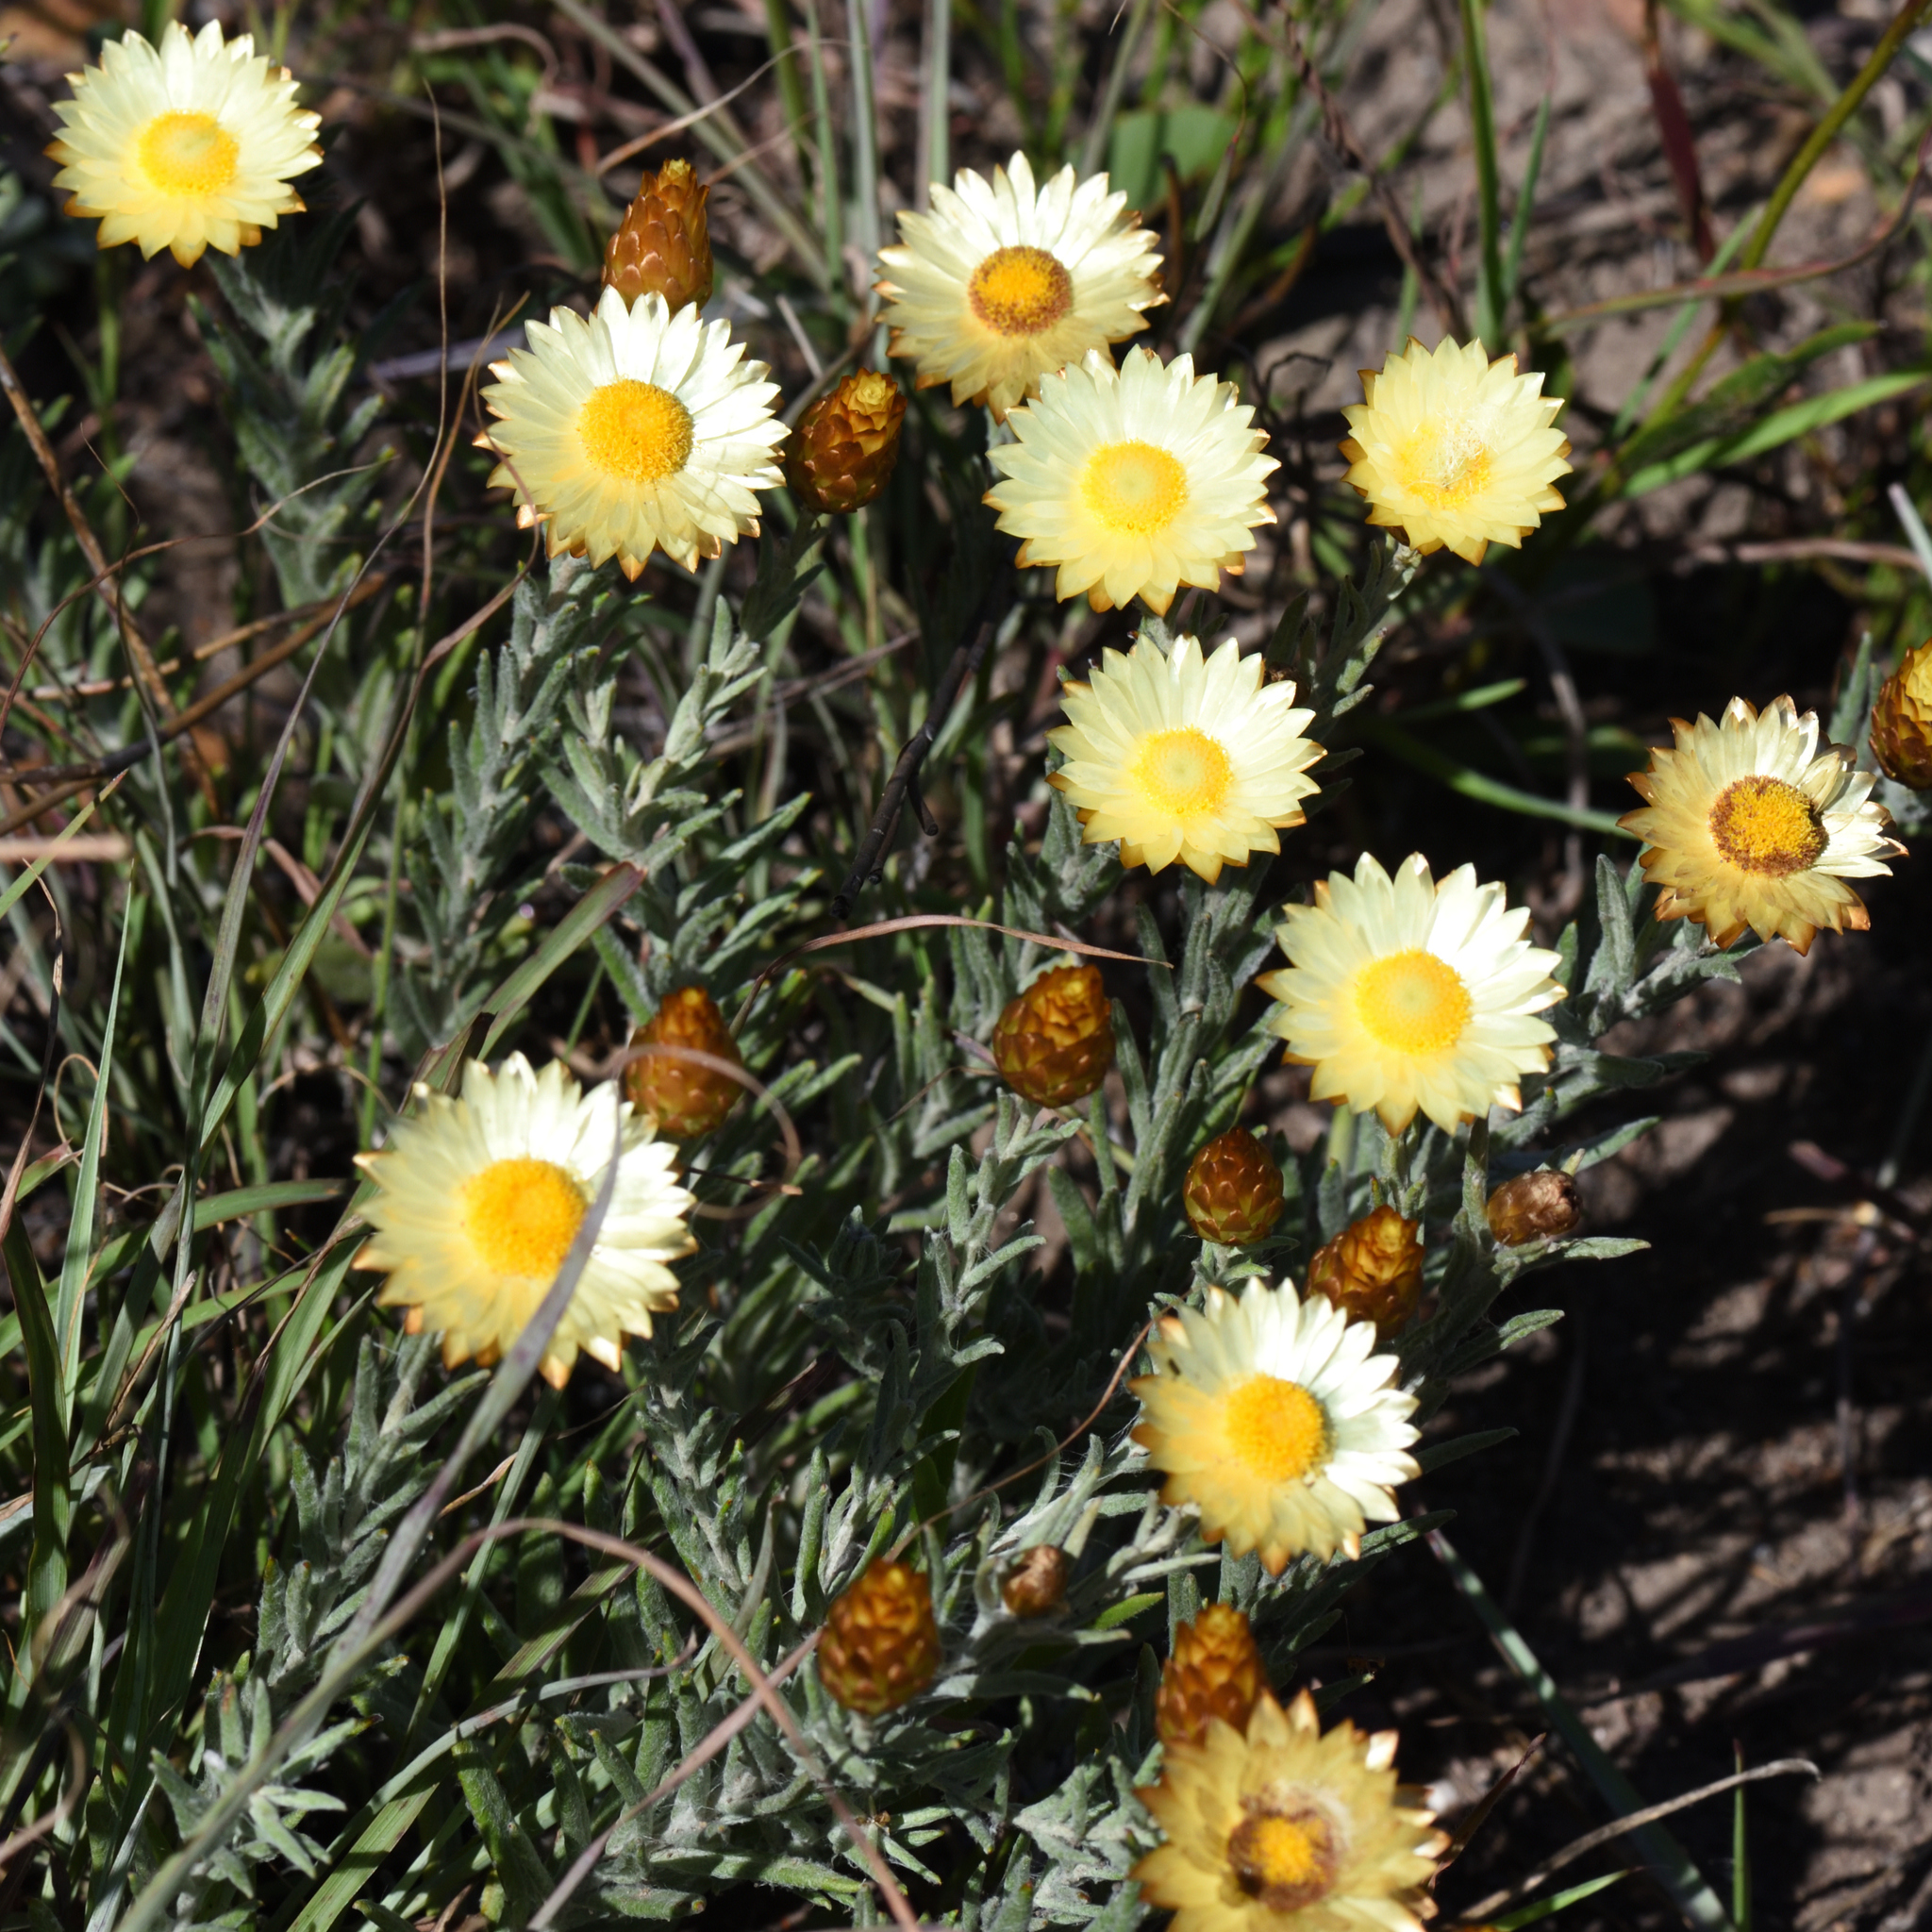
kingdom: Plantae
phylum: Tracheophyta
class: Magnoliopsida
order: Asterales
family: Asteraceae
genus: Helichrysum
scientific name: Helichrysum herbaceum
